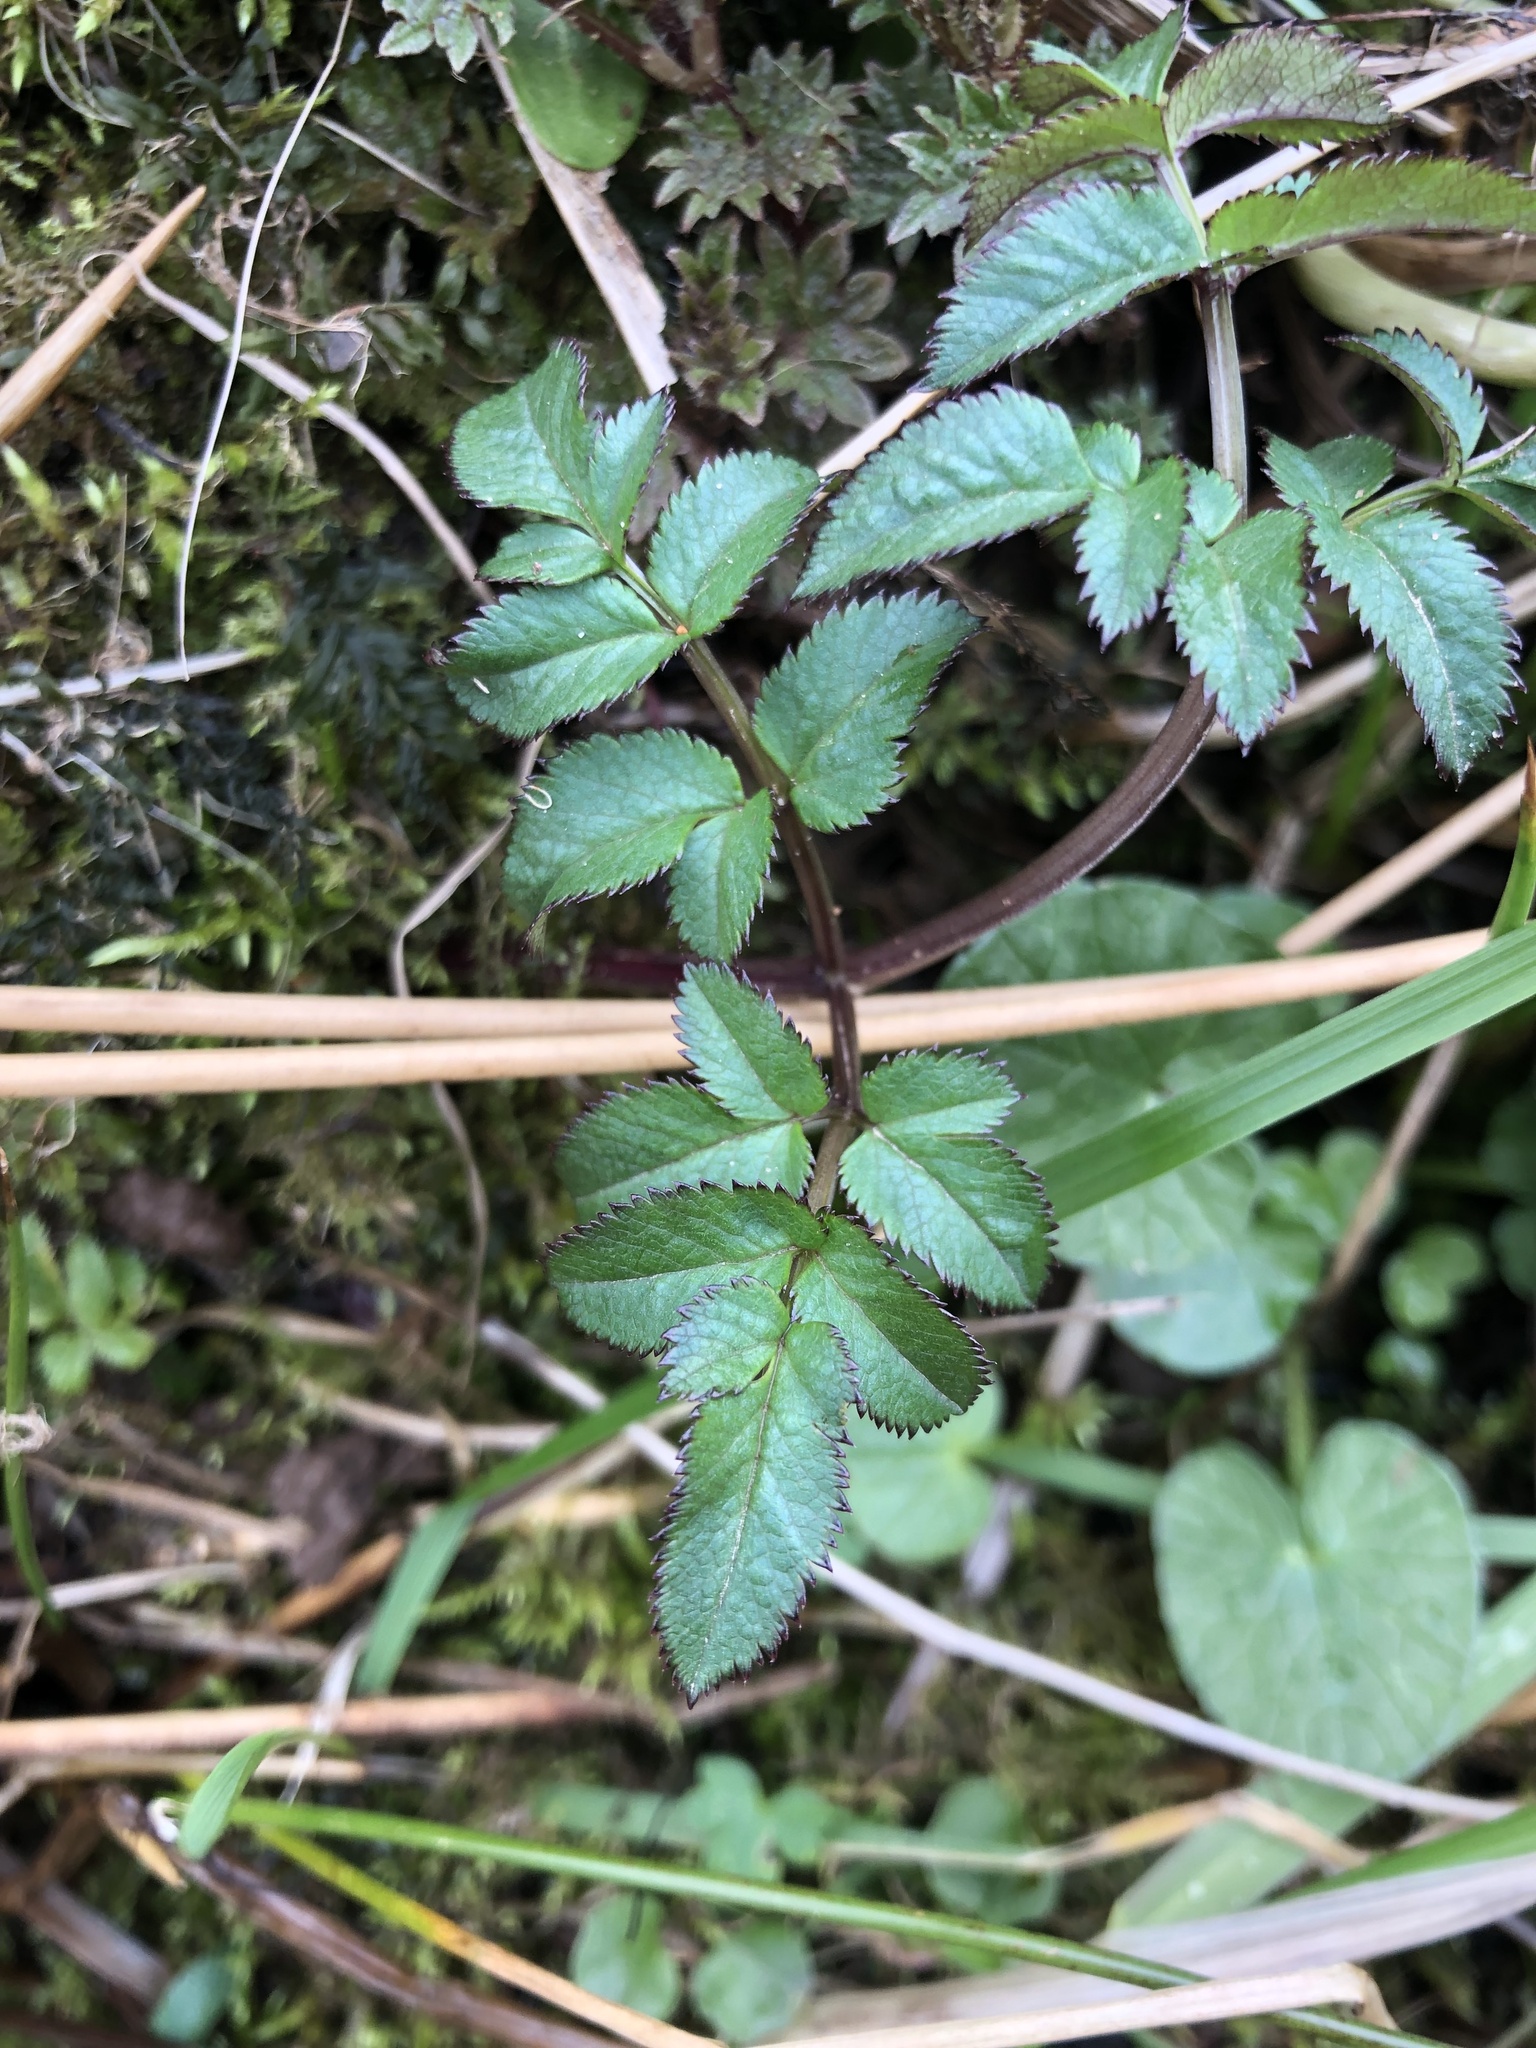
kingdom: Plantae
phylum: Tracheophyta
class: Magnoliopsida
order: Apiales
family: Apiaceae
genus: Angelica
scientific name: Angelica sylvestris
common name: Wild angelica
